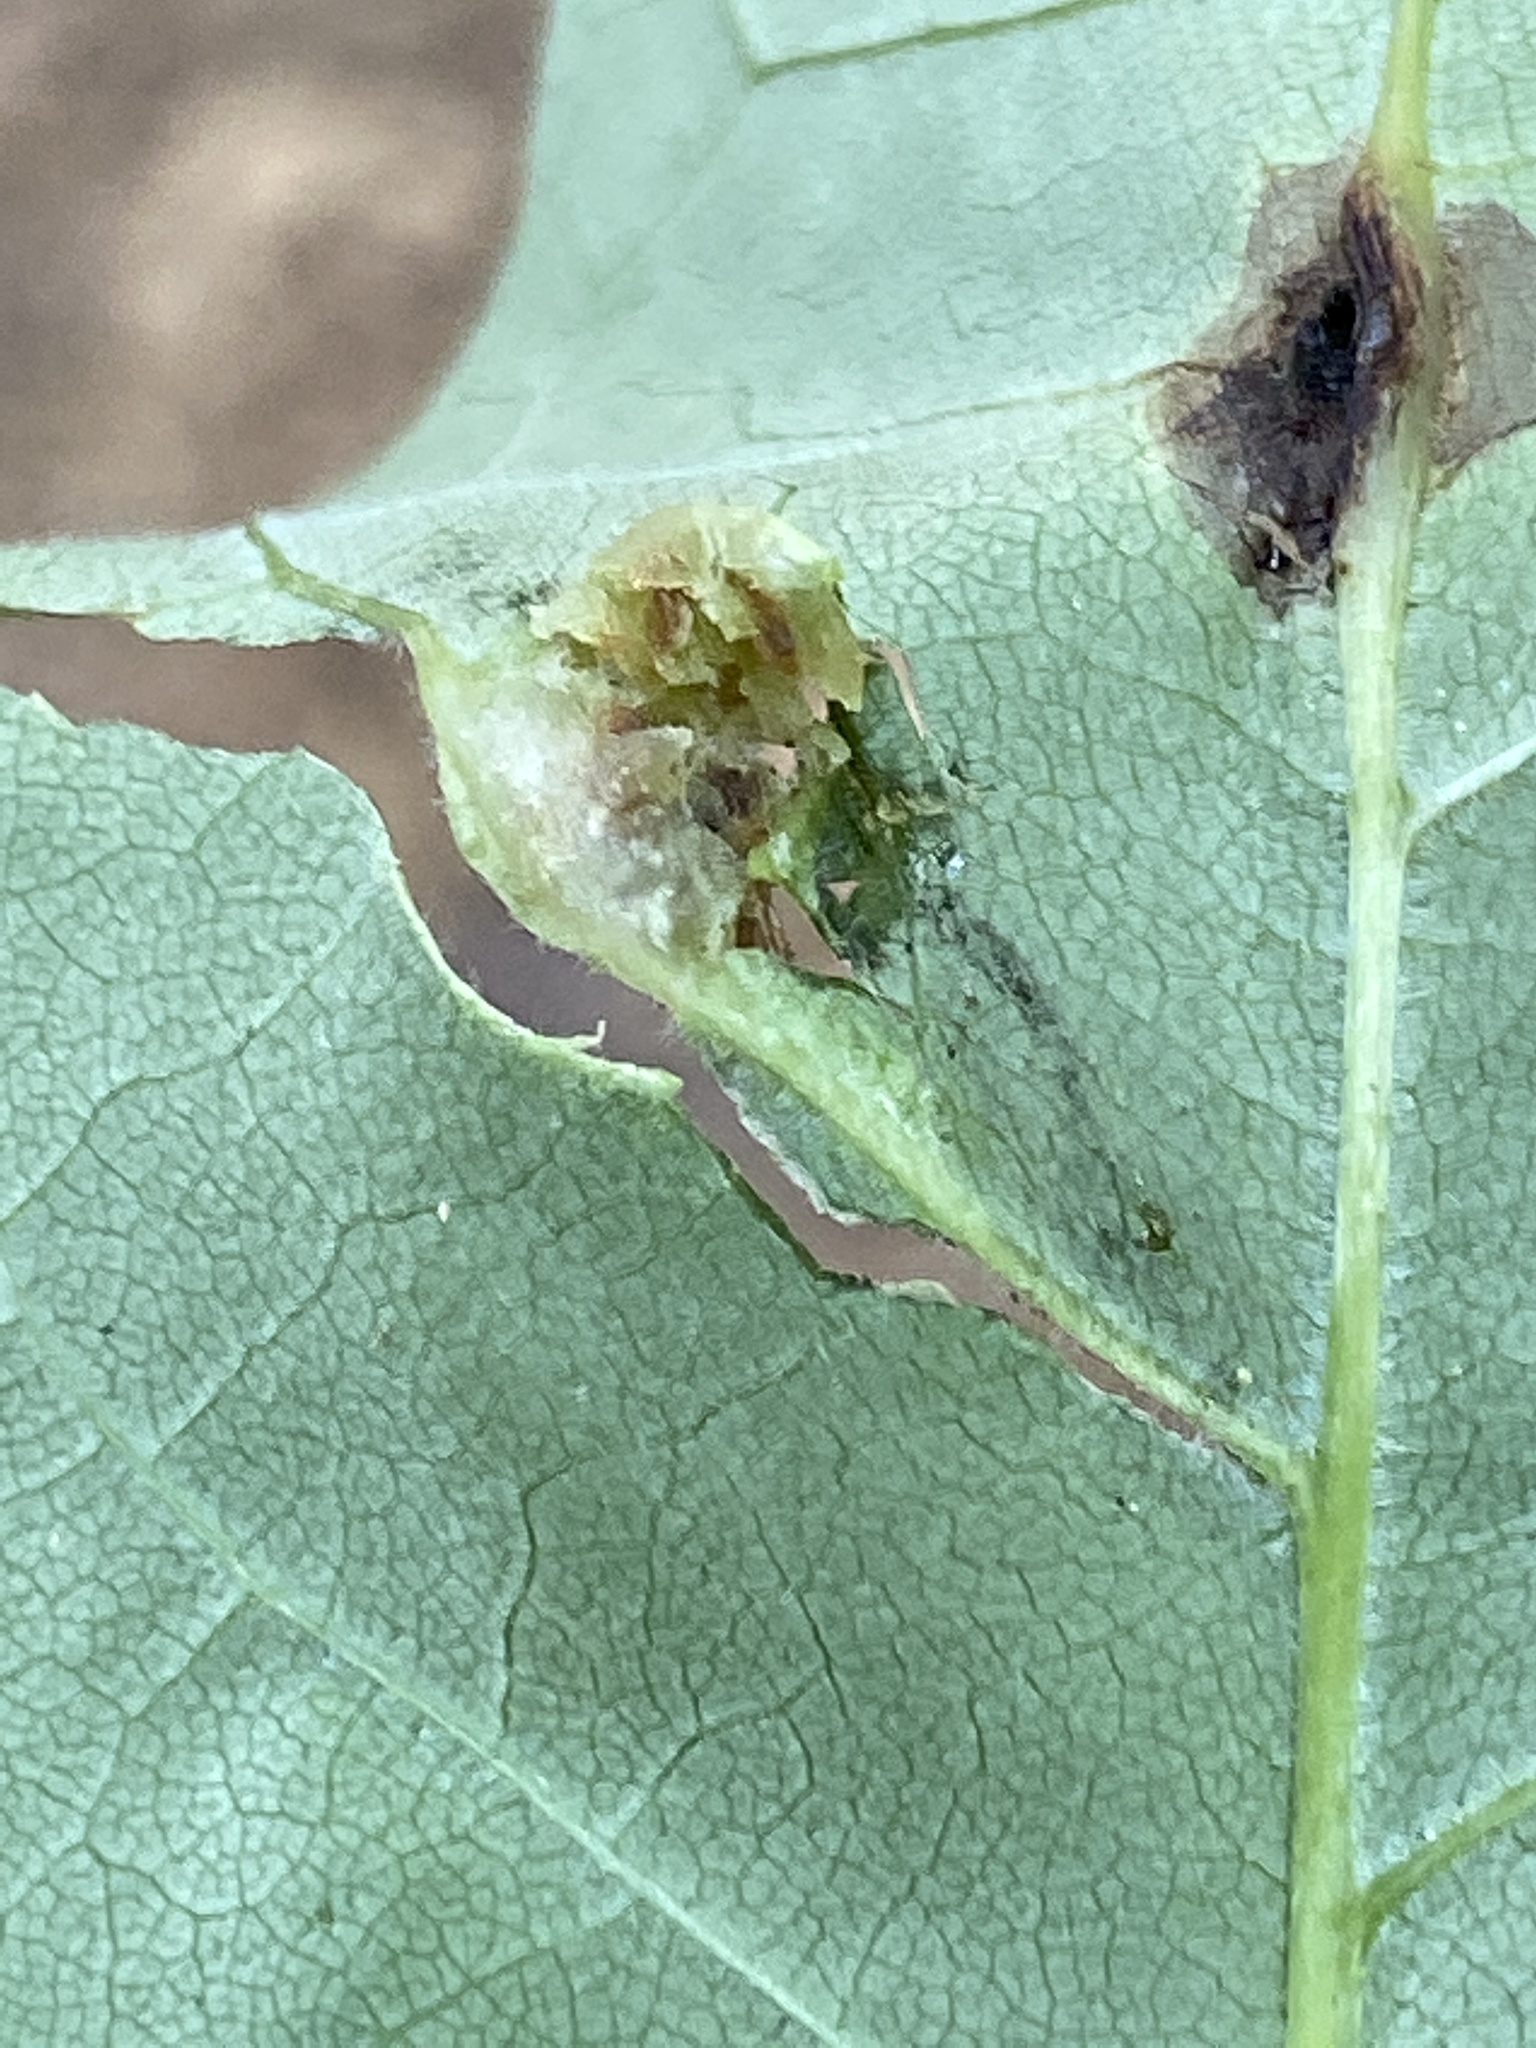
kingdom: Animalia
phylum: Arthropoda
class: Insecta
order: Diptera
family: Cecidomyiidae
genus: Dasineura
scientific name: Dasineura pellex
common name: Ash bullet gall midge
